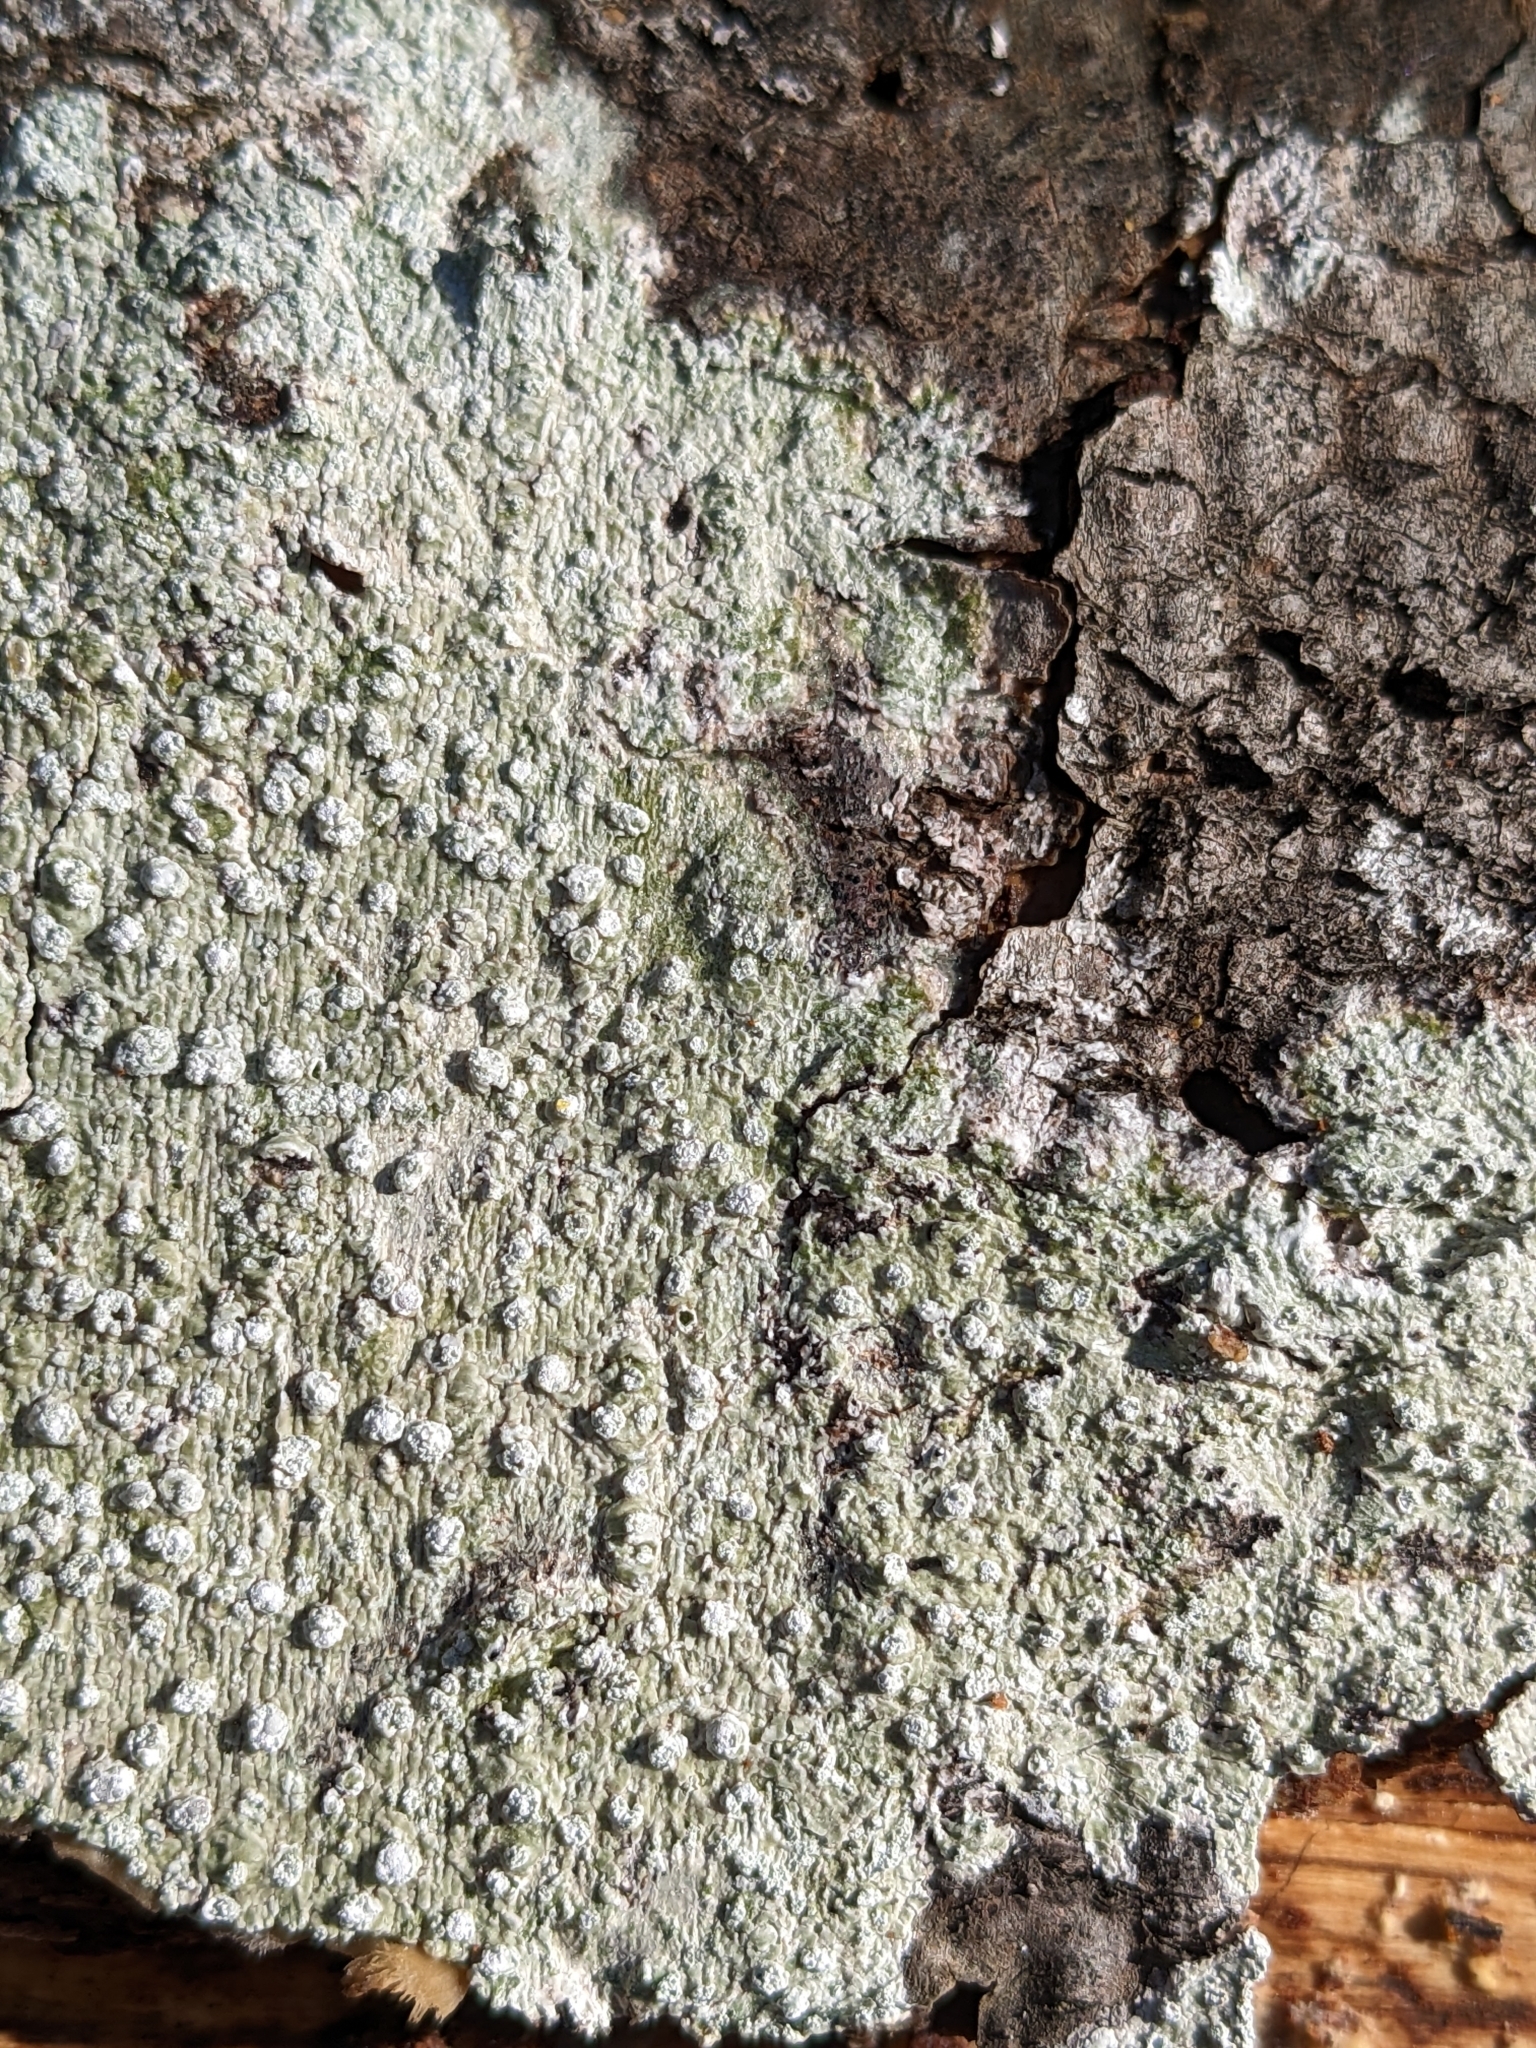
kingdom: Fungi
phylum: Ascomycota
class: Lecanoromycetes
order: Pertusariales
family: Pertusariaceae
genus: Lepra
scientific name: Lepra amara
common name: Bitter wart lichen
